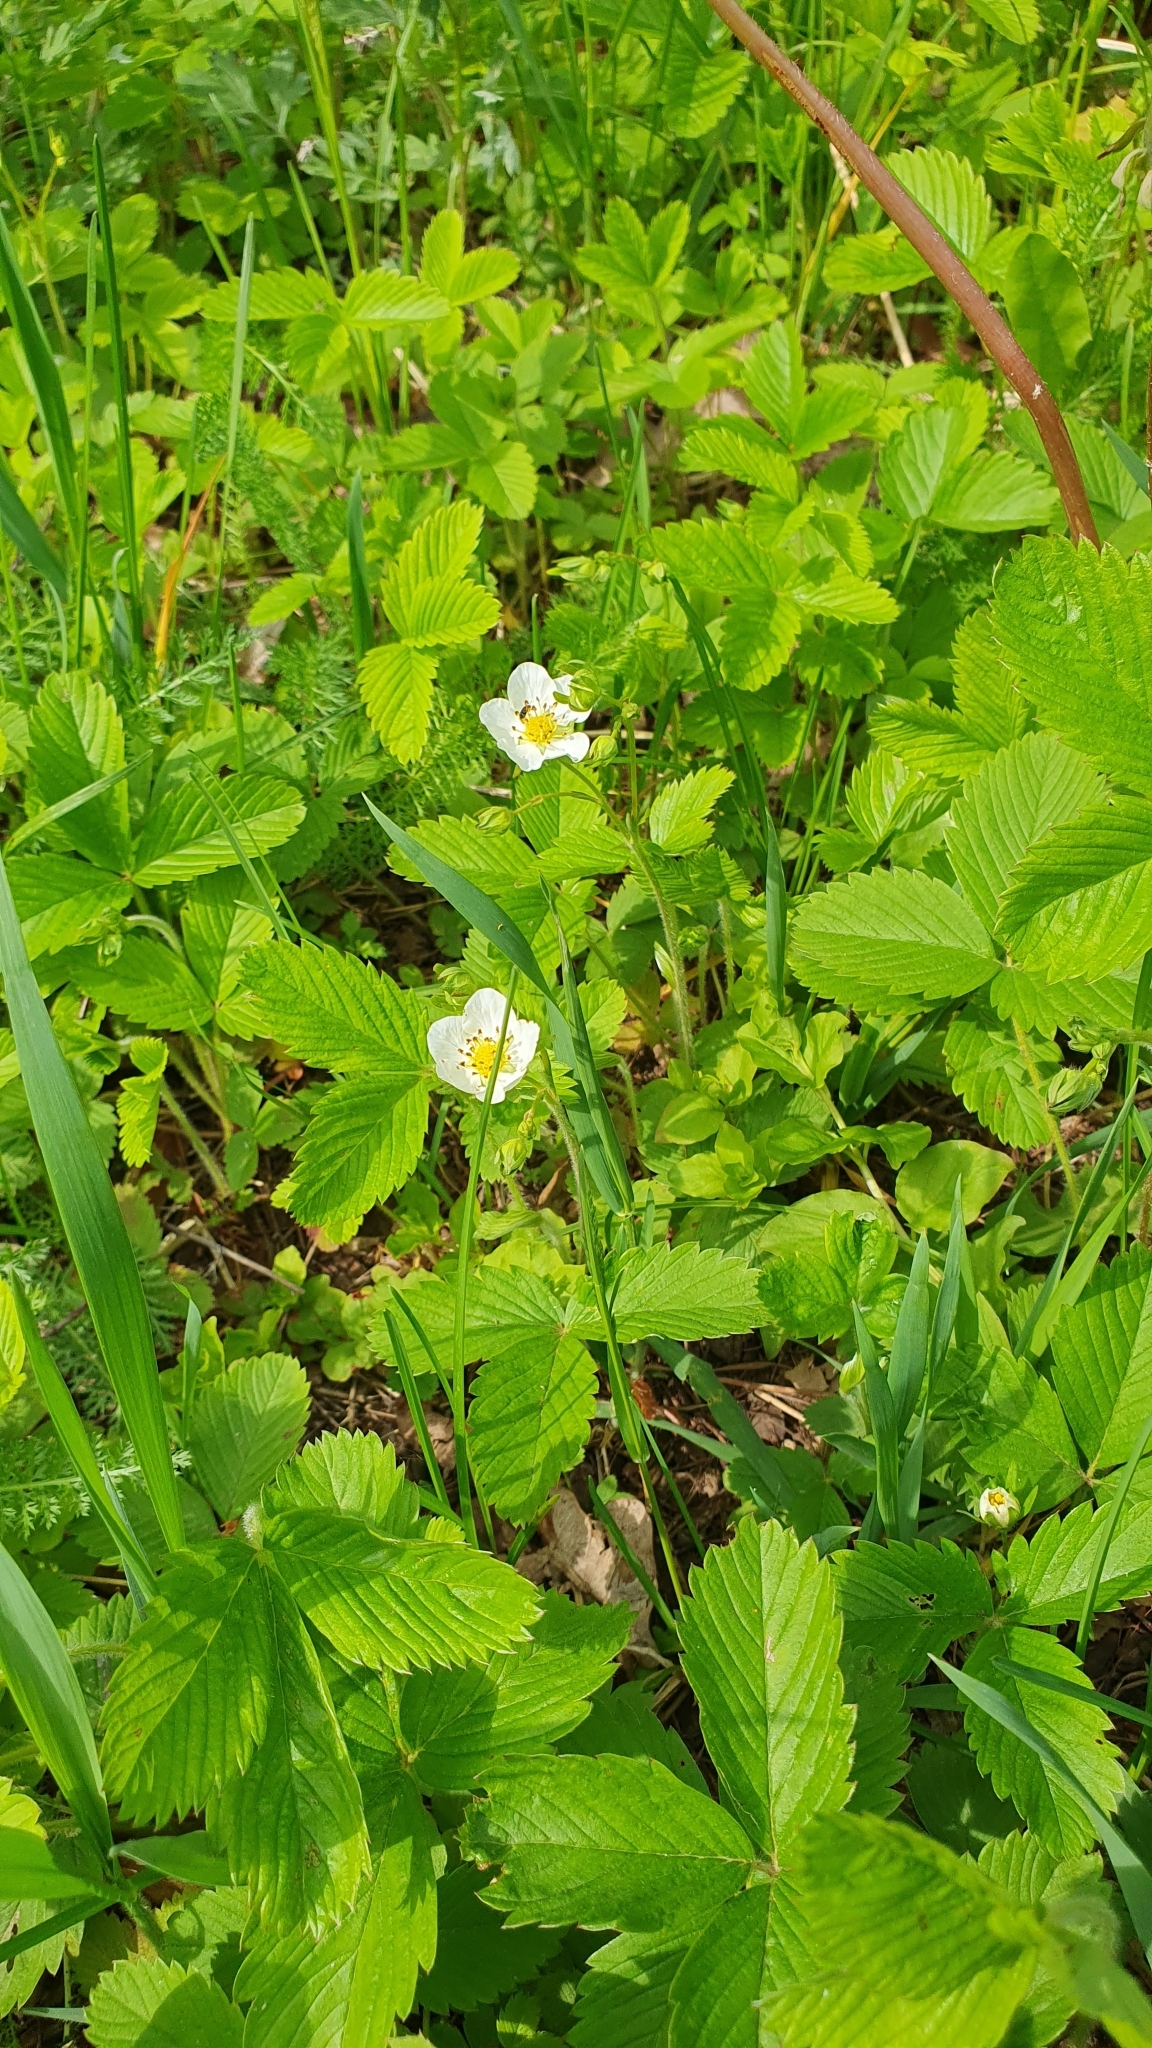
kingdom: Plantae
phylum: Tracheophyta
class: Magnoliopsida
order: Rosales
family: Rosaceae
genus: Fragaria
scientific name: Fragaria viridis
